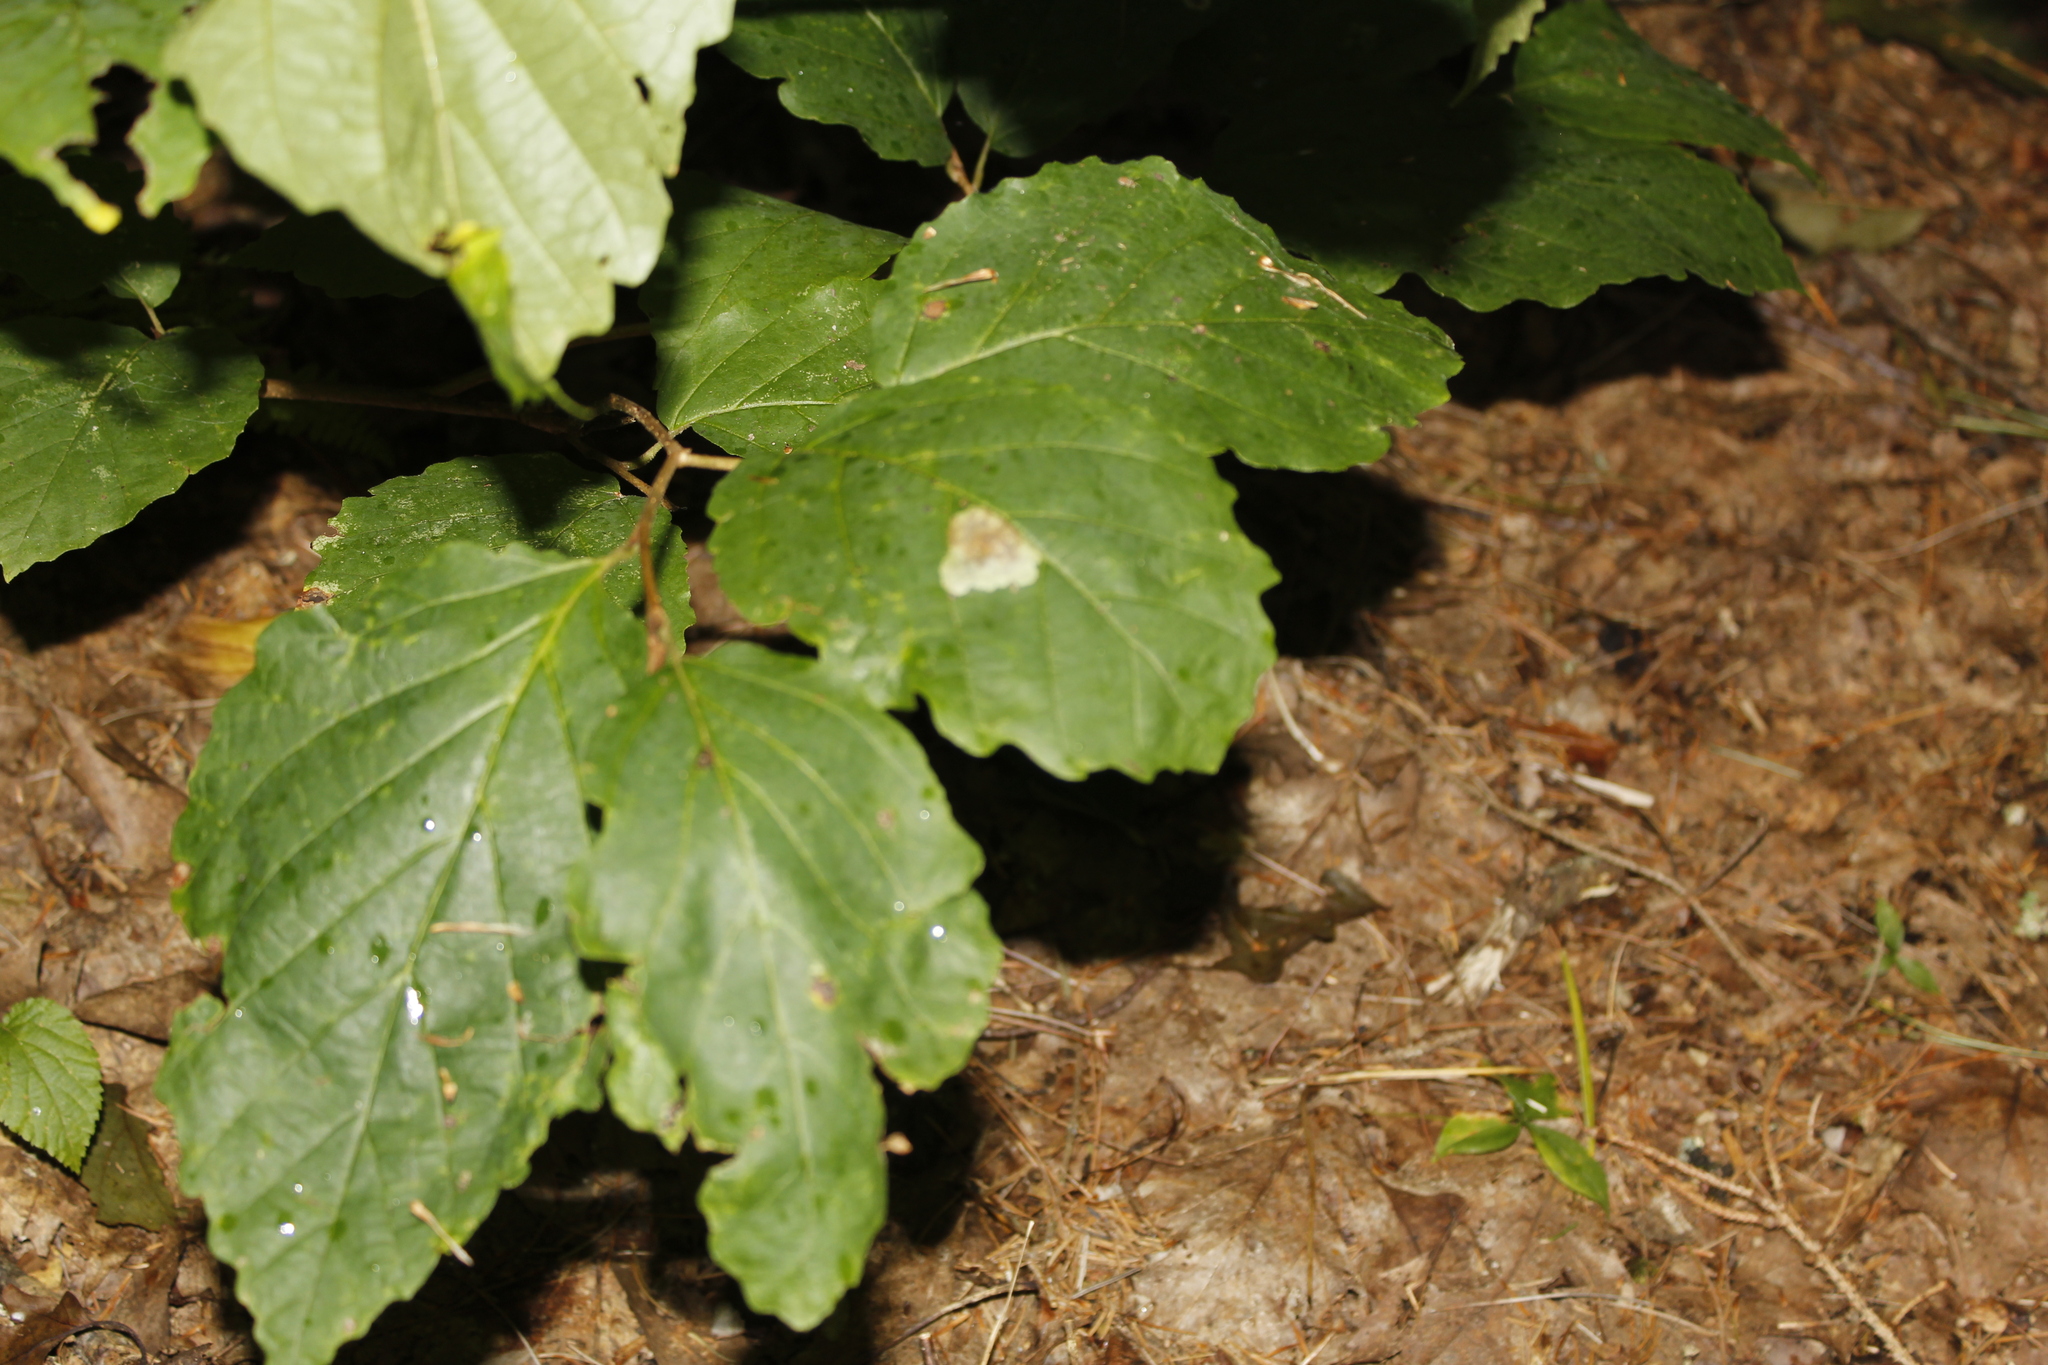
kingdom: Animalia
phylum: Arthropoda
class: Insecta
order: Lepidoptera
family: Gracillariidae
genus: Cameraria
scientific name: Cameraria hamameliella
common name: Witchhazel leafminer
